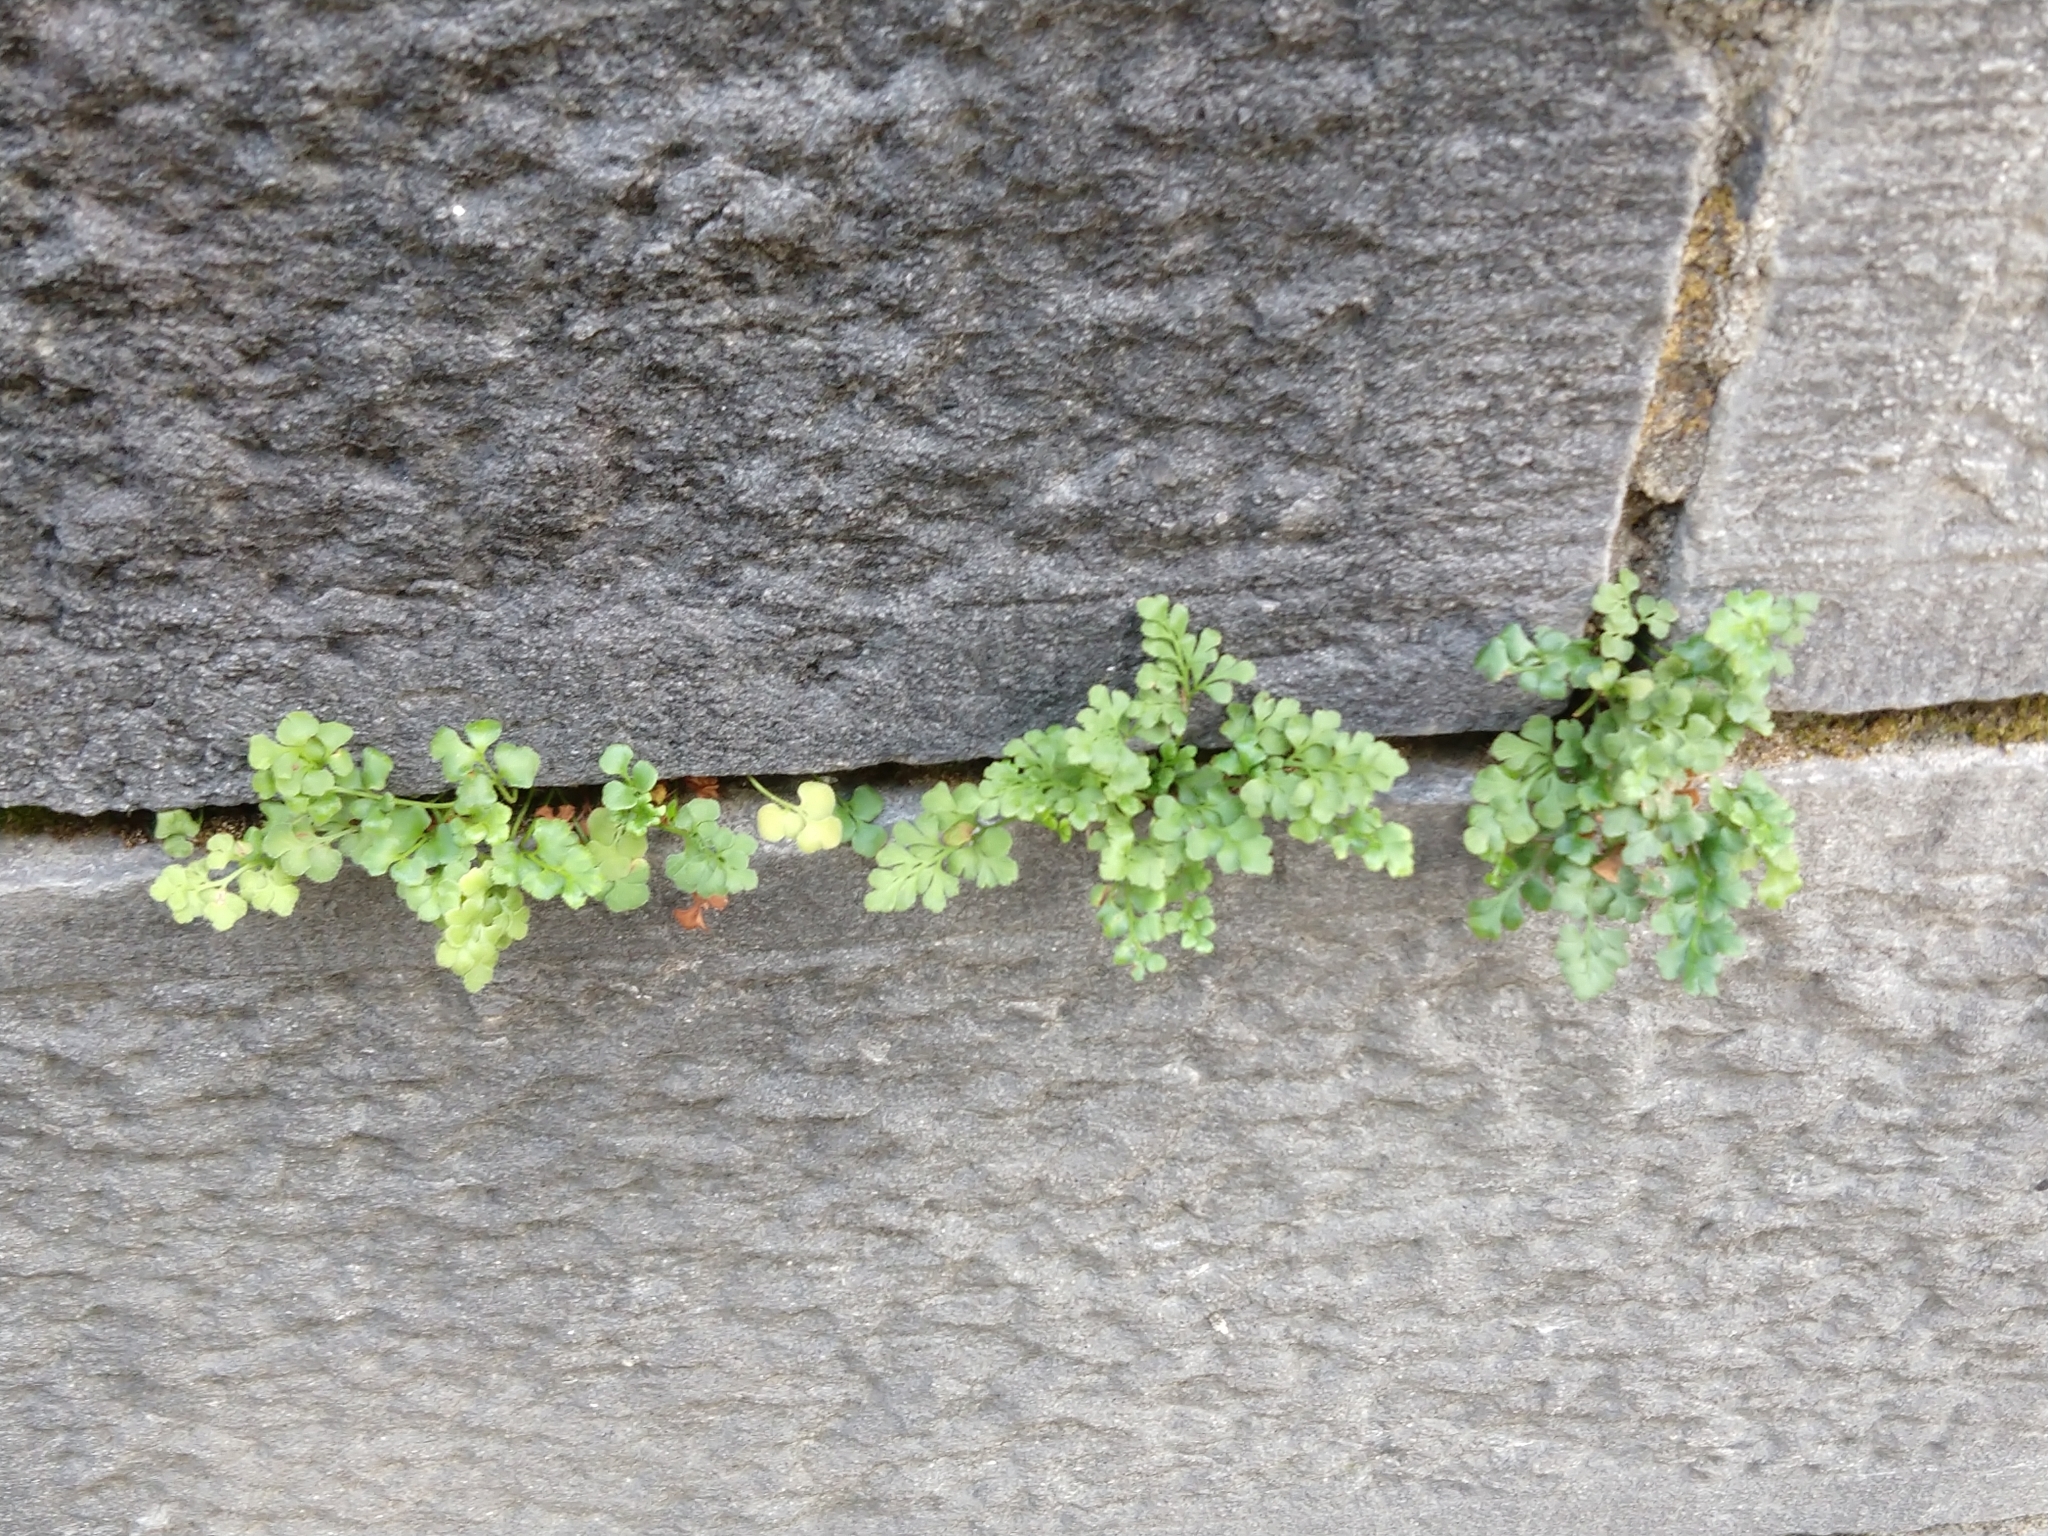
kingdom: Plantae
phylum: Tracheophyta
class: Polypodiopsida
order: Polypodiales
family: Aspleniaceae
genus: Asplenium
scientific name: Asplenium ruta-muraria
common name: Wall-rue
